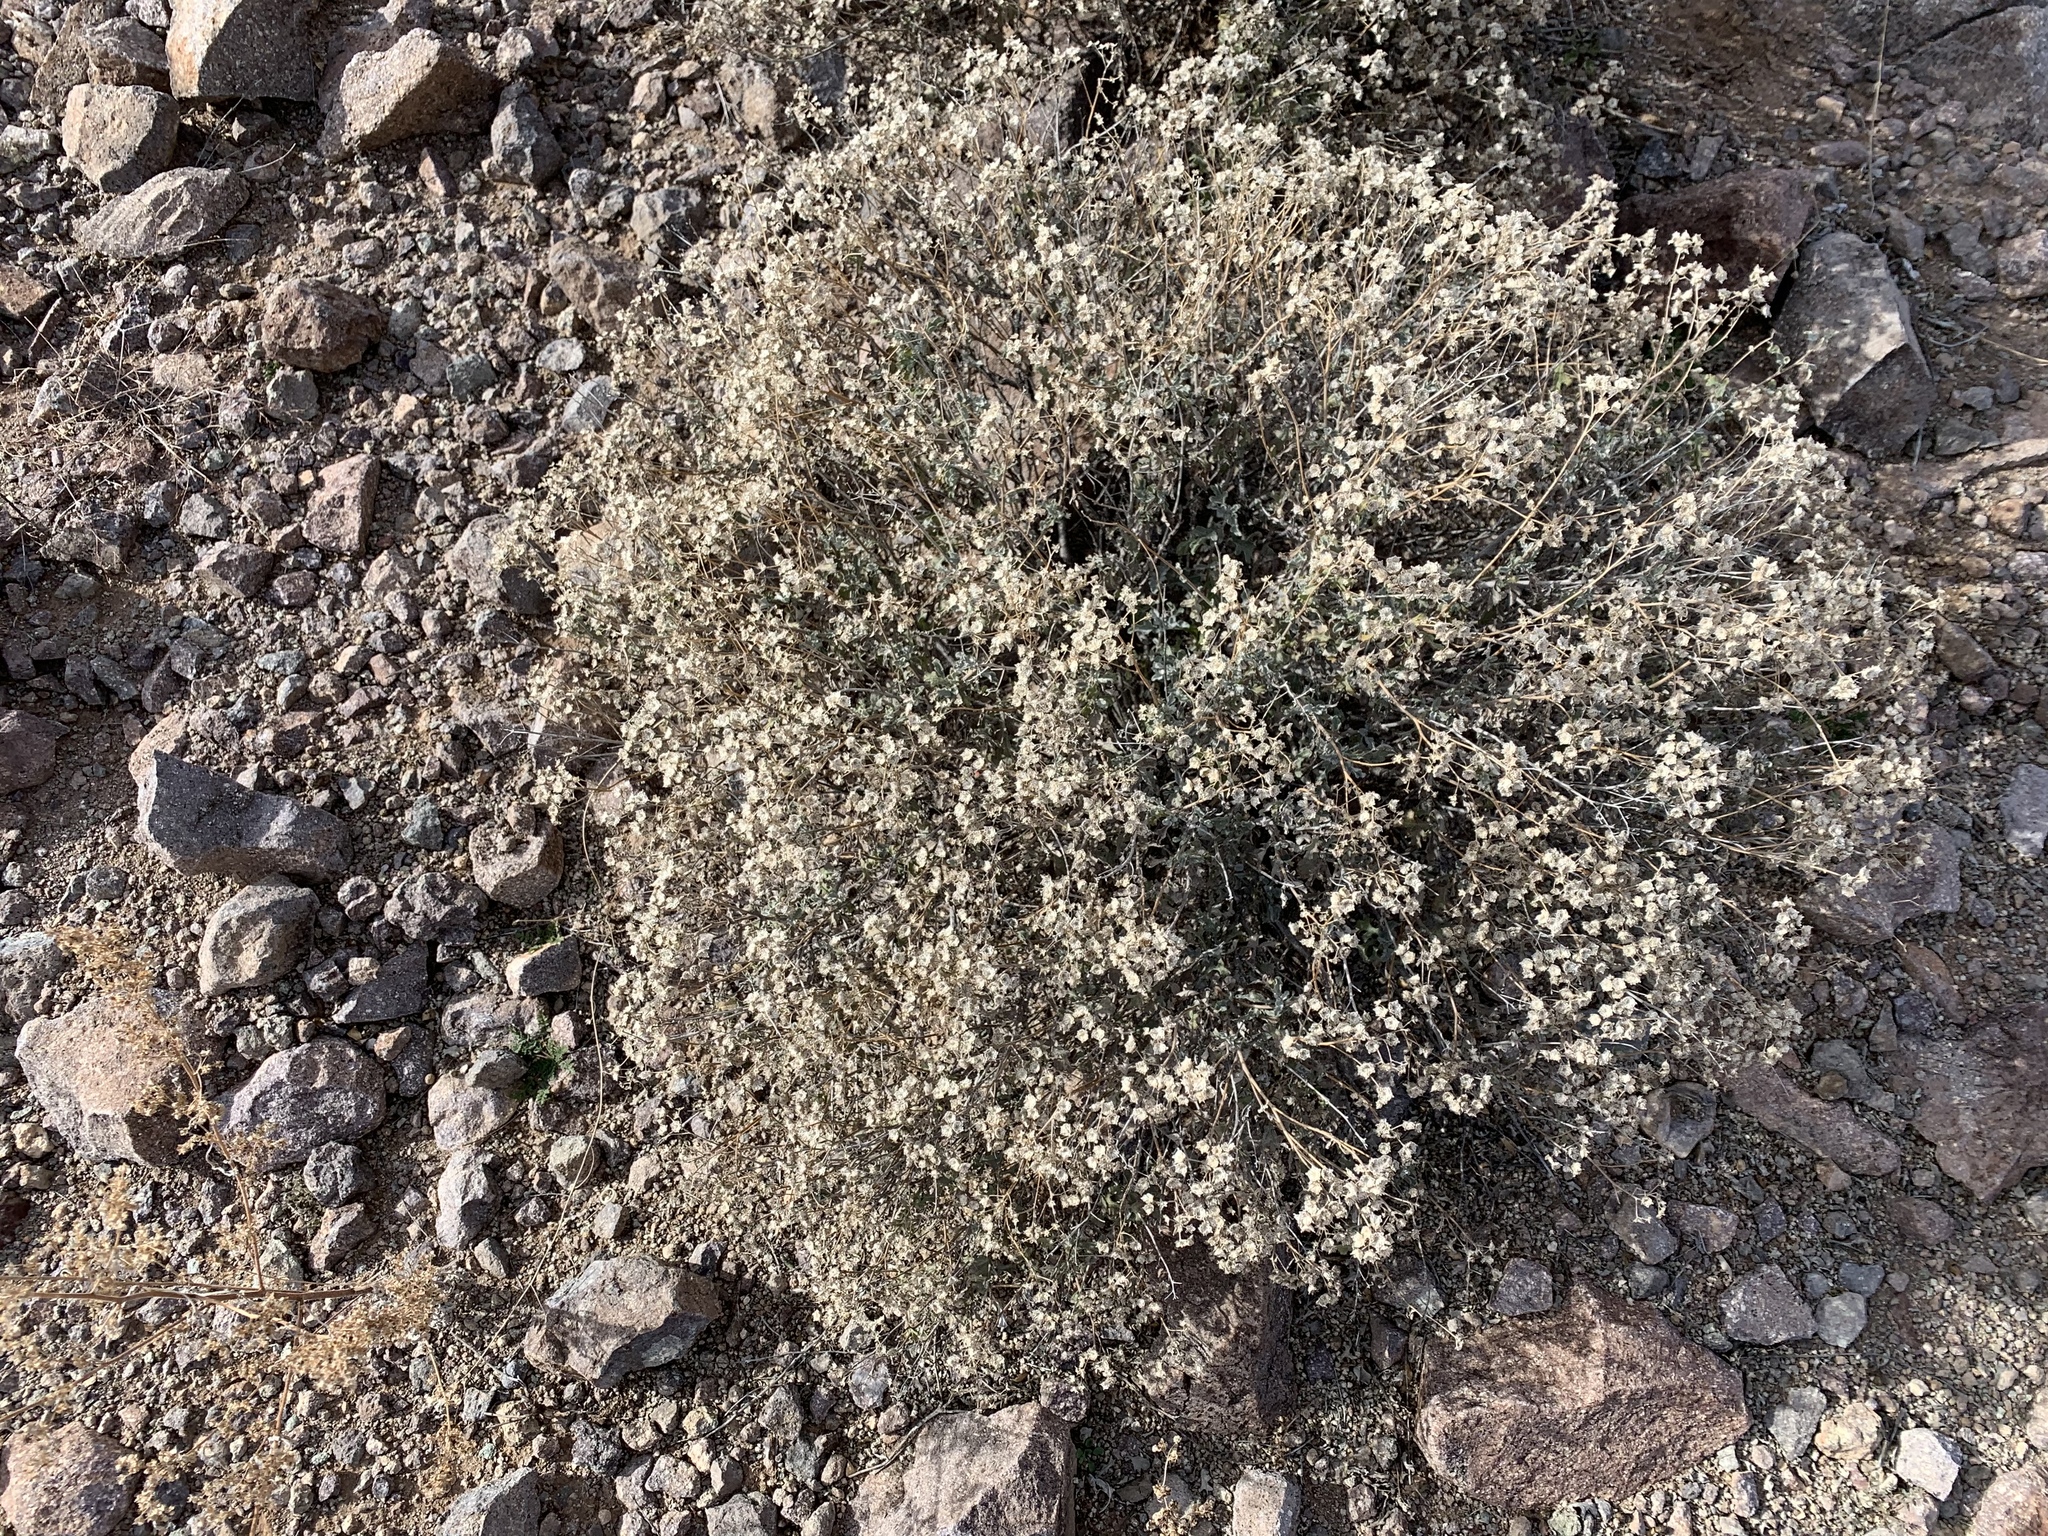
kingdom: Plantae
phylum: Tracheophyta
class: Magnoliopsida
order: Asterales
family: Asteraceae
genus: Parthenium
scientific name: Parthenium incanum
